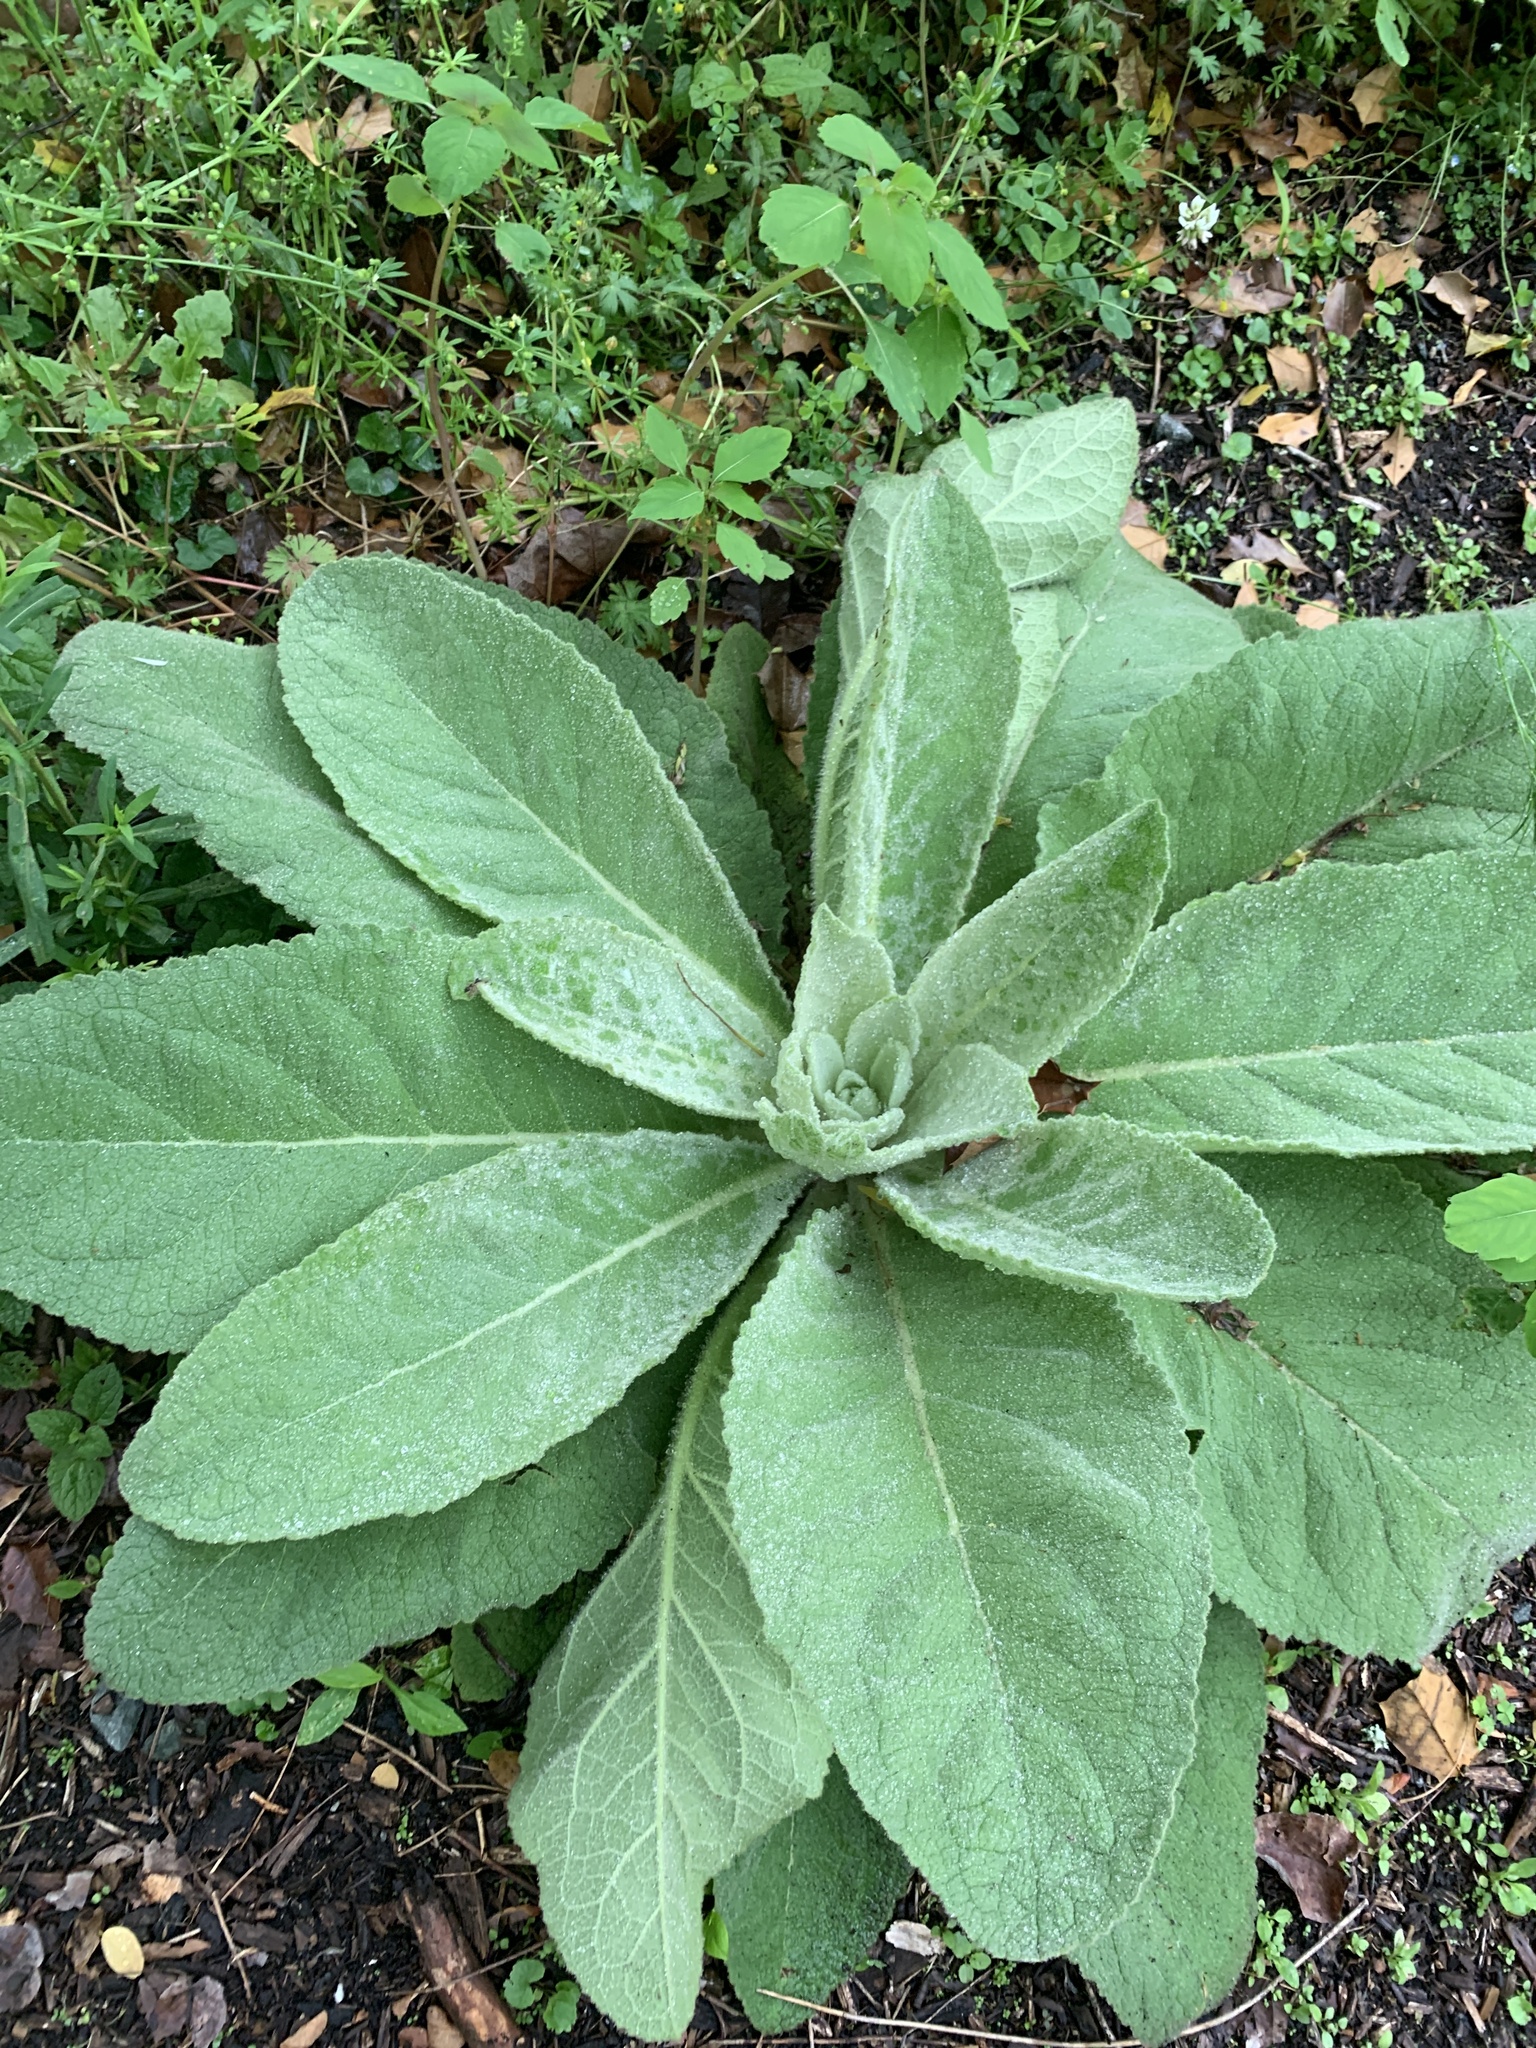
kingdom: Plantae
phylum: Tracheophyta
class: Magnoliopsida
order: Lamiales
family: Scrophulariaceae
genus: Verbascum
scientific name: Verbascum thapsus
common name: Common mullein
